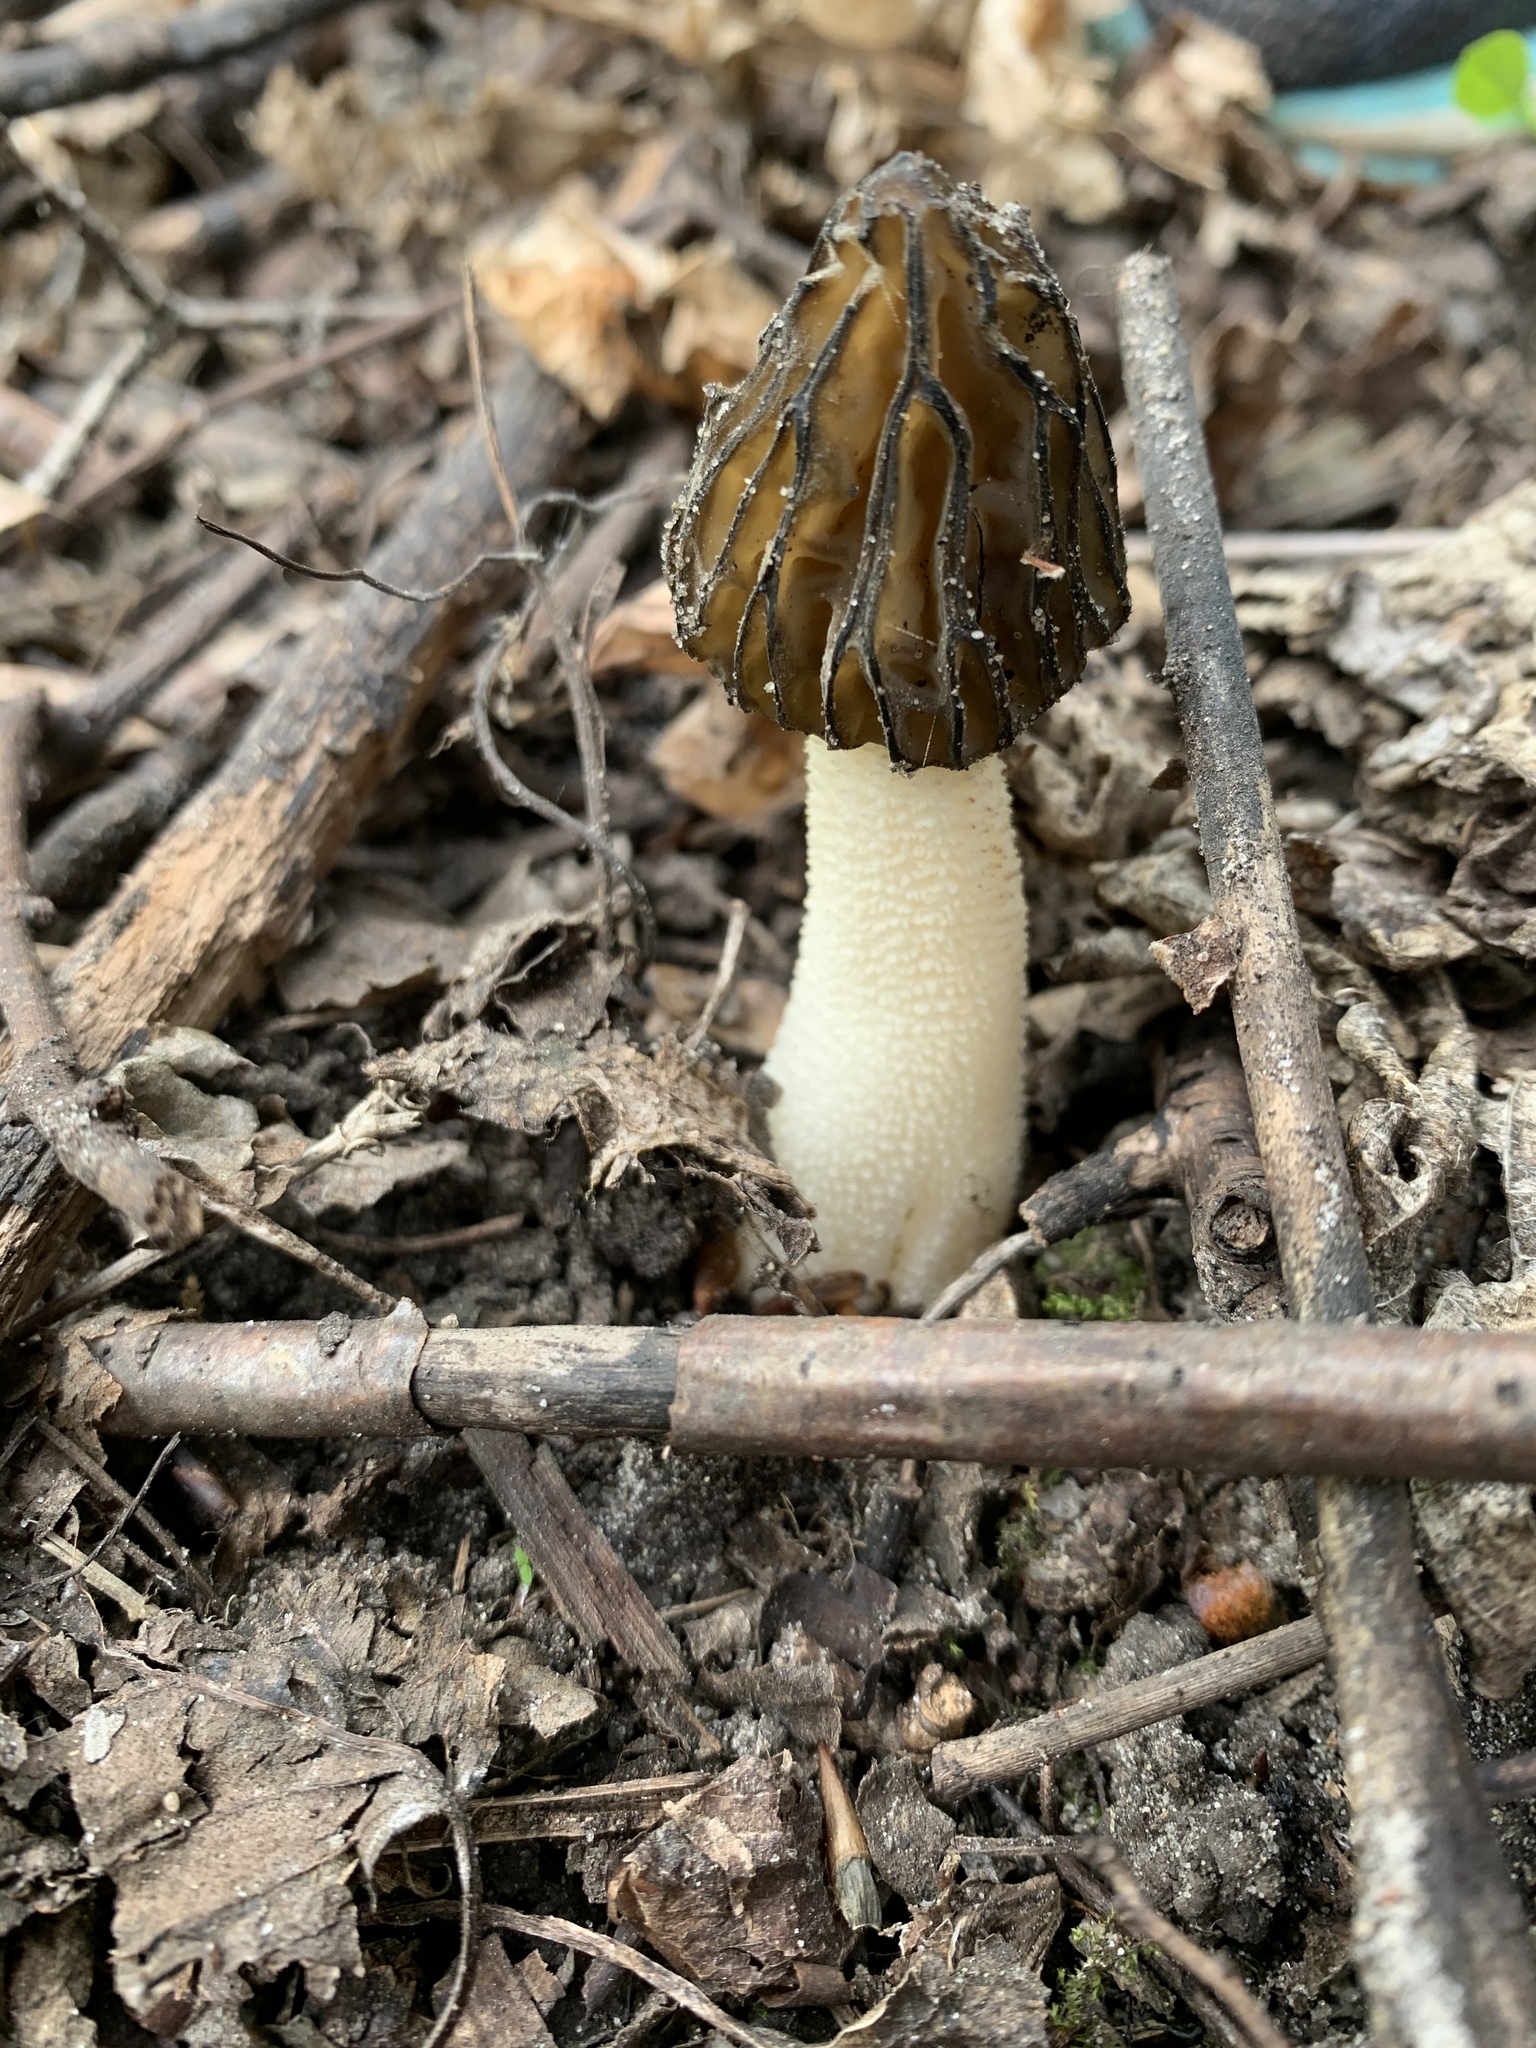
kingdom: Fungi
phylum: Ascomycota
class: Pezizomycetes
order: Pezizales
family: Morchellaceae
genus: Morchella
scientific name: Morchella punctipes
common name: Half-free morel
